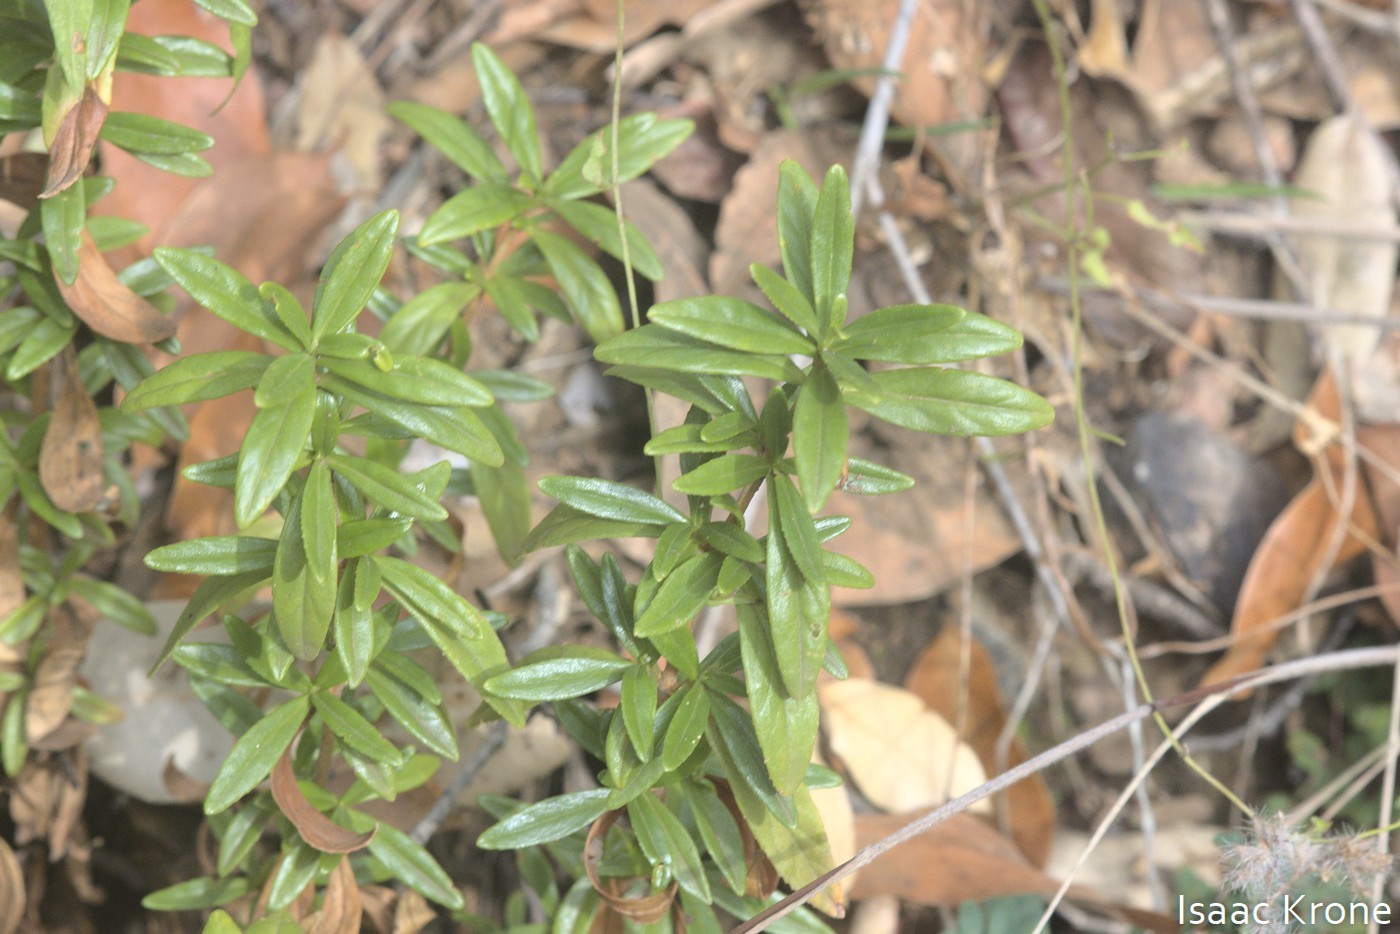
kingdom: Plantae
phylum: Tracheophyta
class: Magnoliopsida
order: Lamiales
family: Phrymaceae
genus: Diplacus
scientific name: Diplacus linearis
